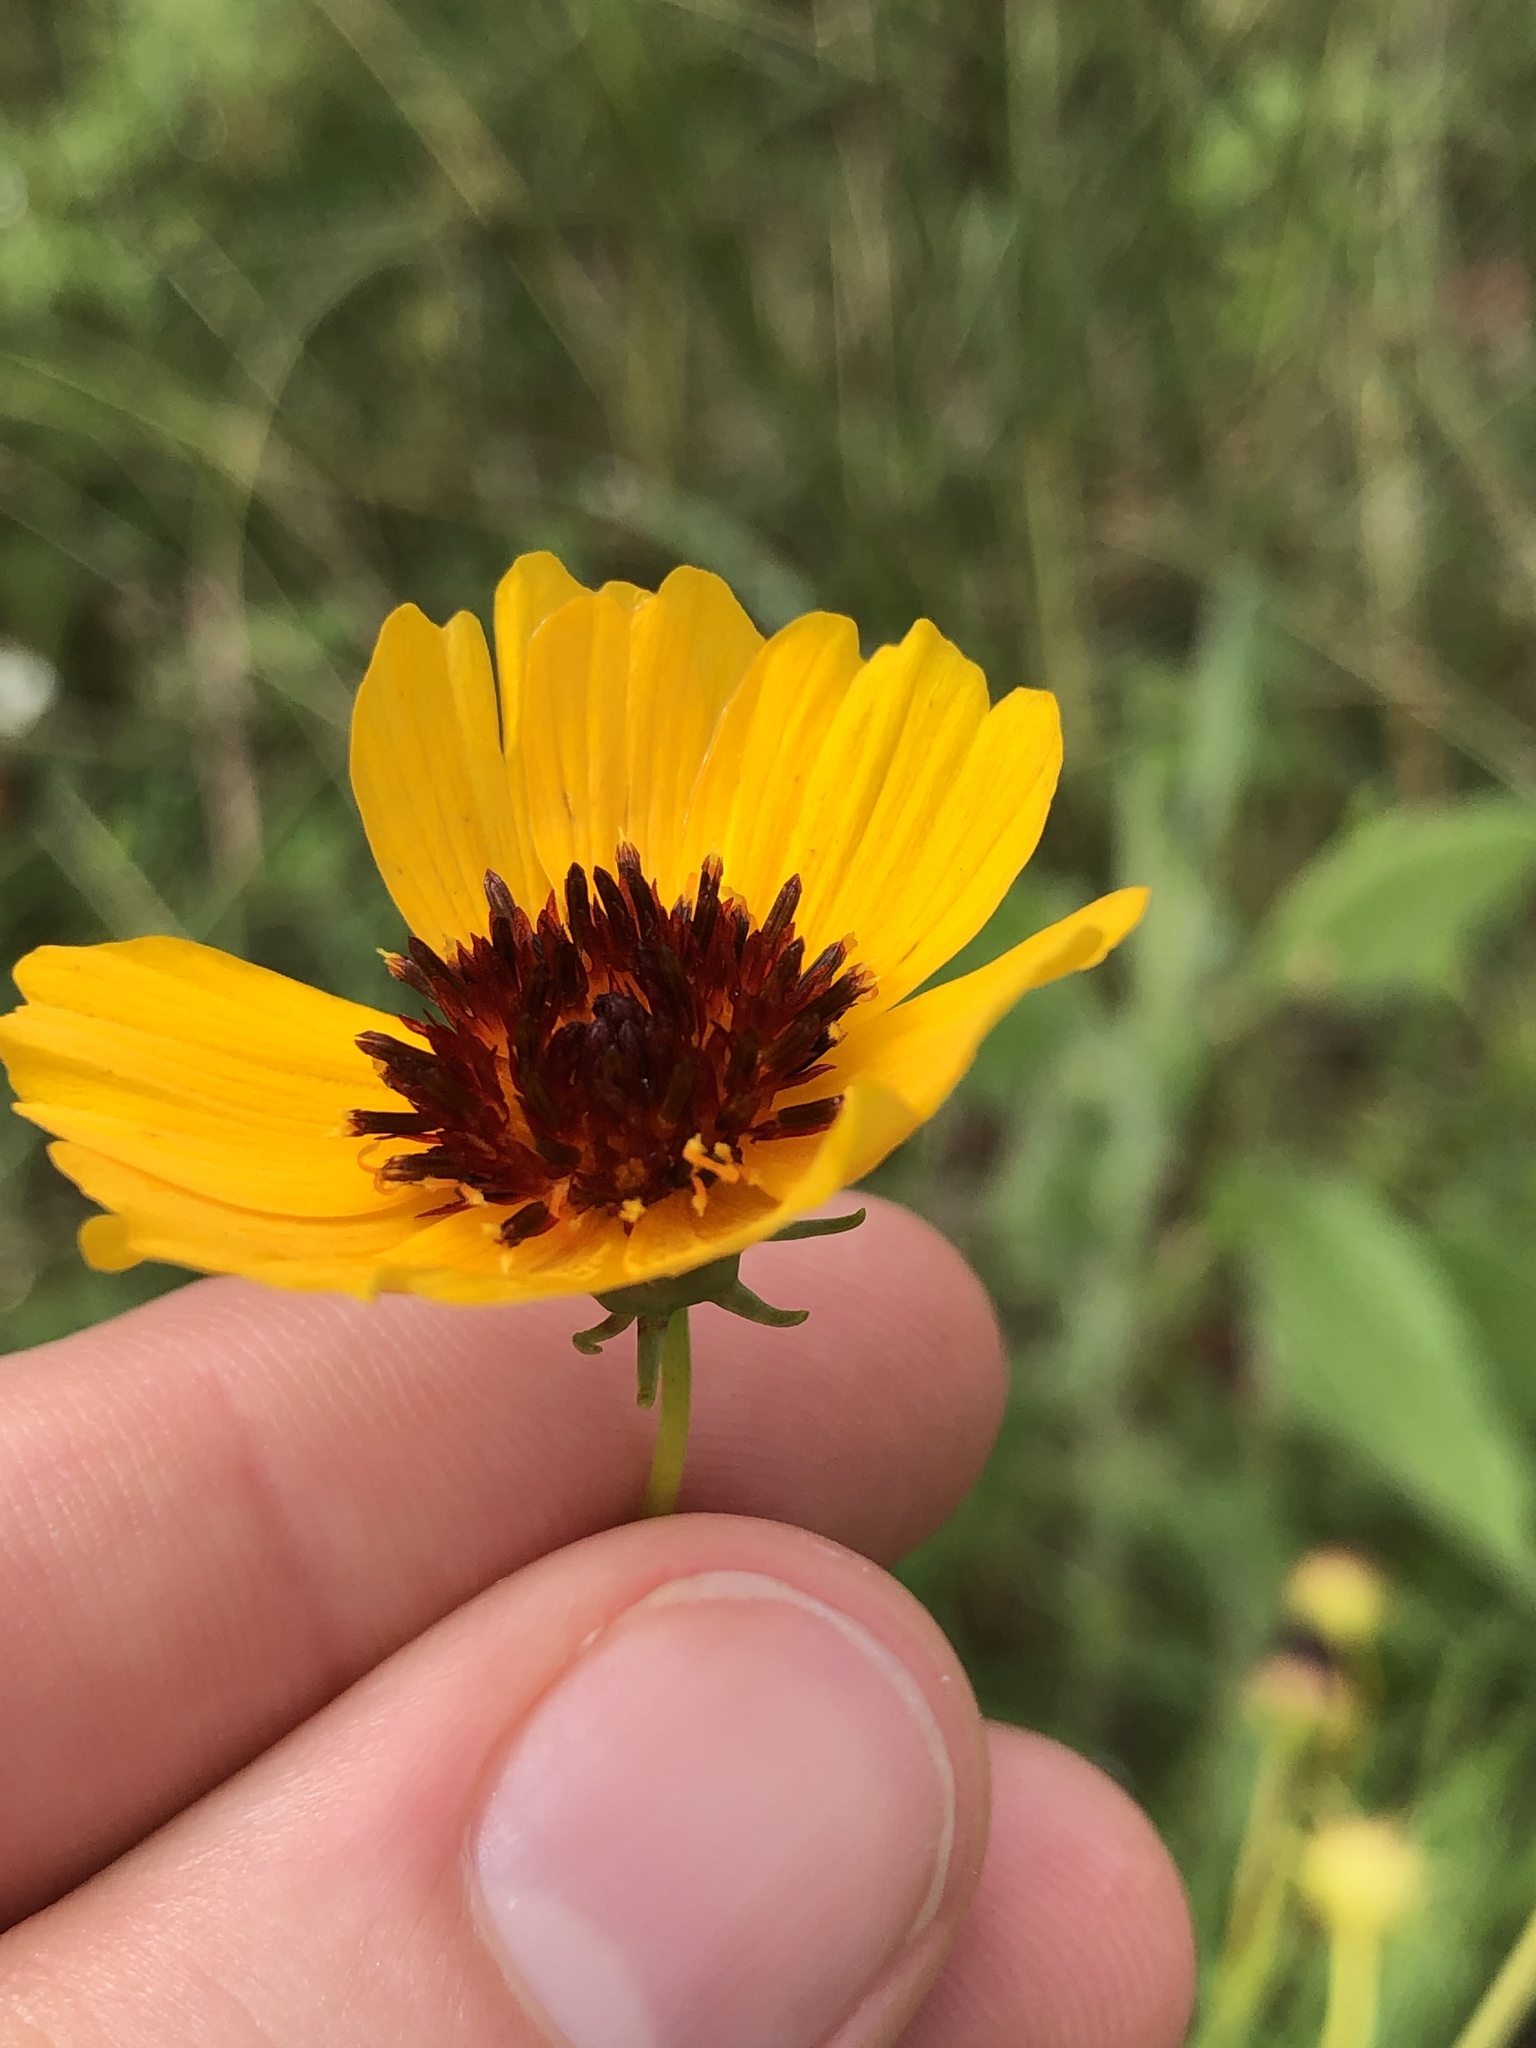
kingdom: Plantae
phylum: Tracheophyta
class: Magnoliopsida
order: Asterales
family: Asteraceae
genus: Thelesperma
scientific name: Thelesperma filifolium
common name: Stiff greenthread
